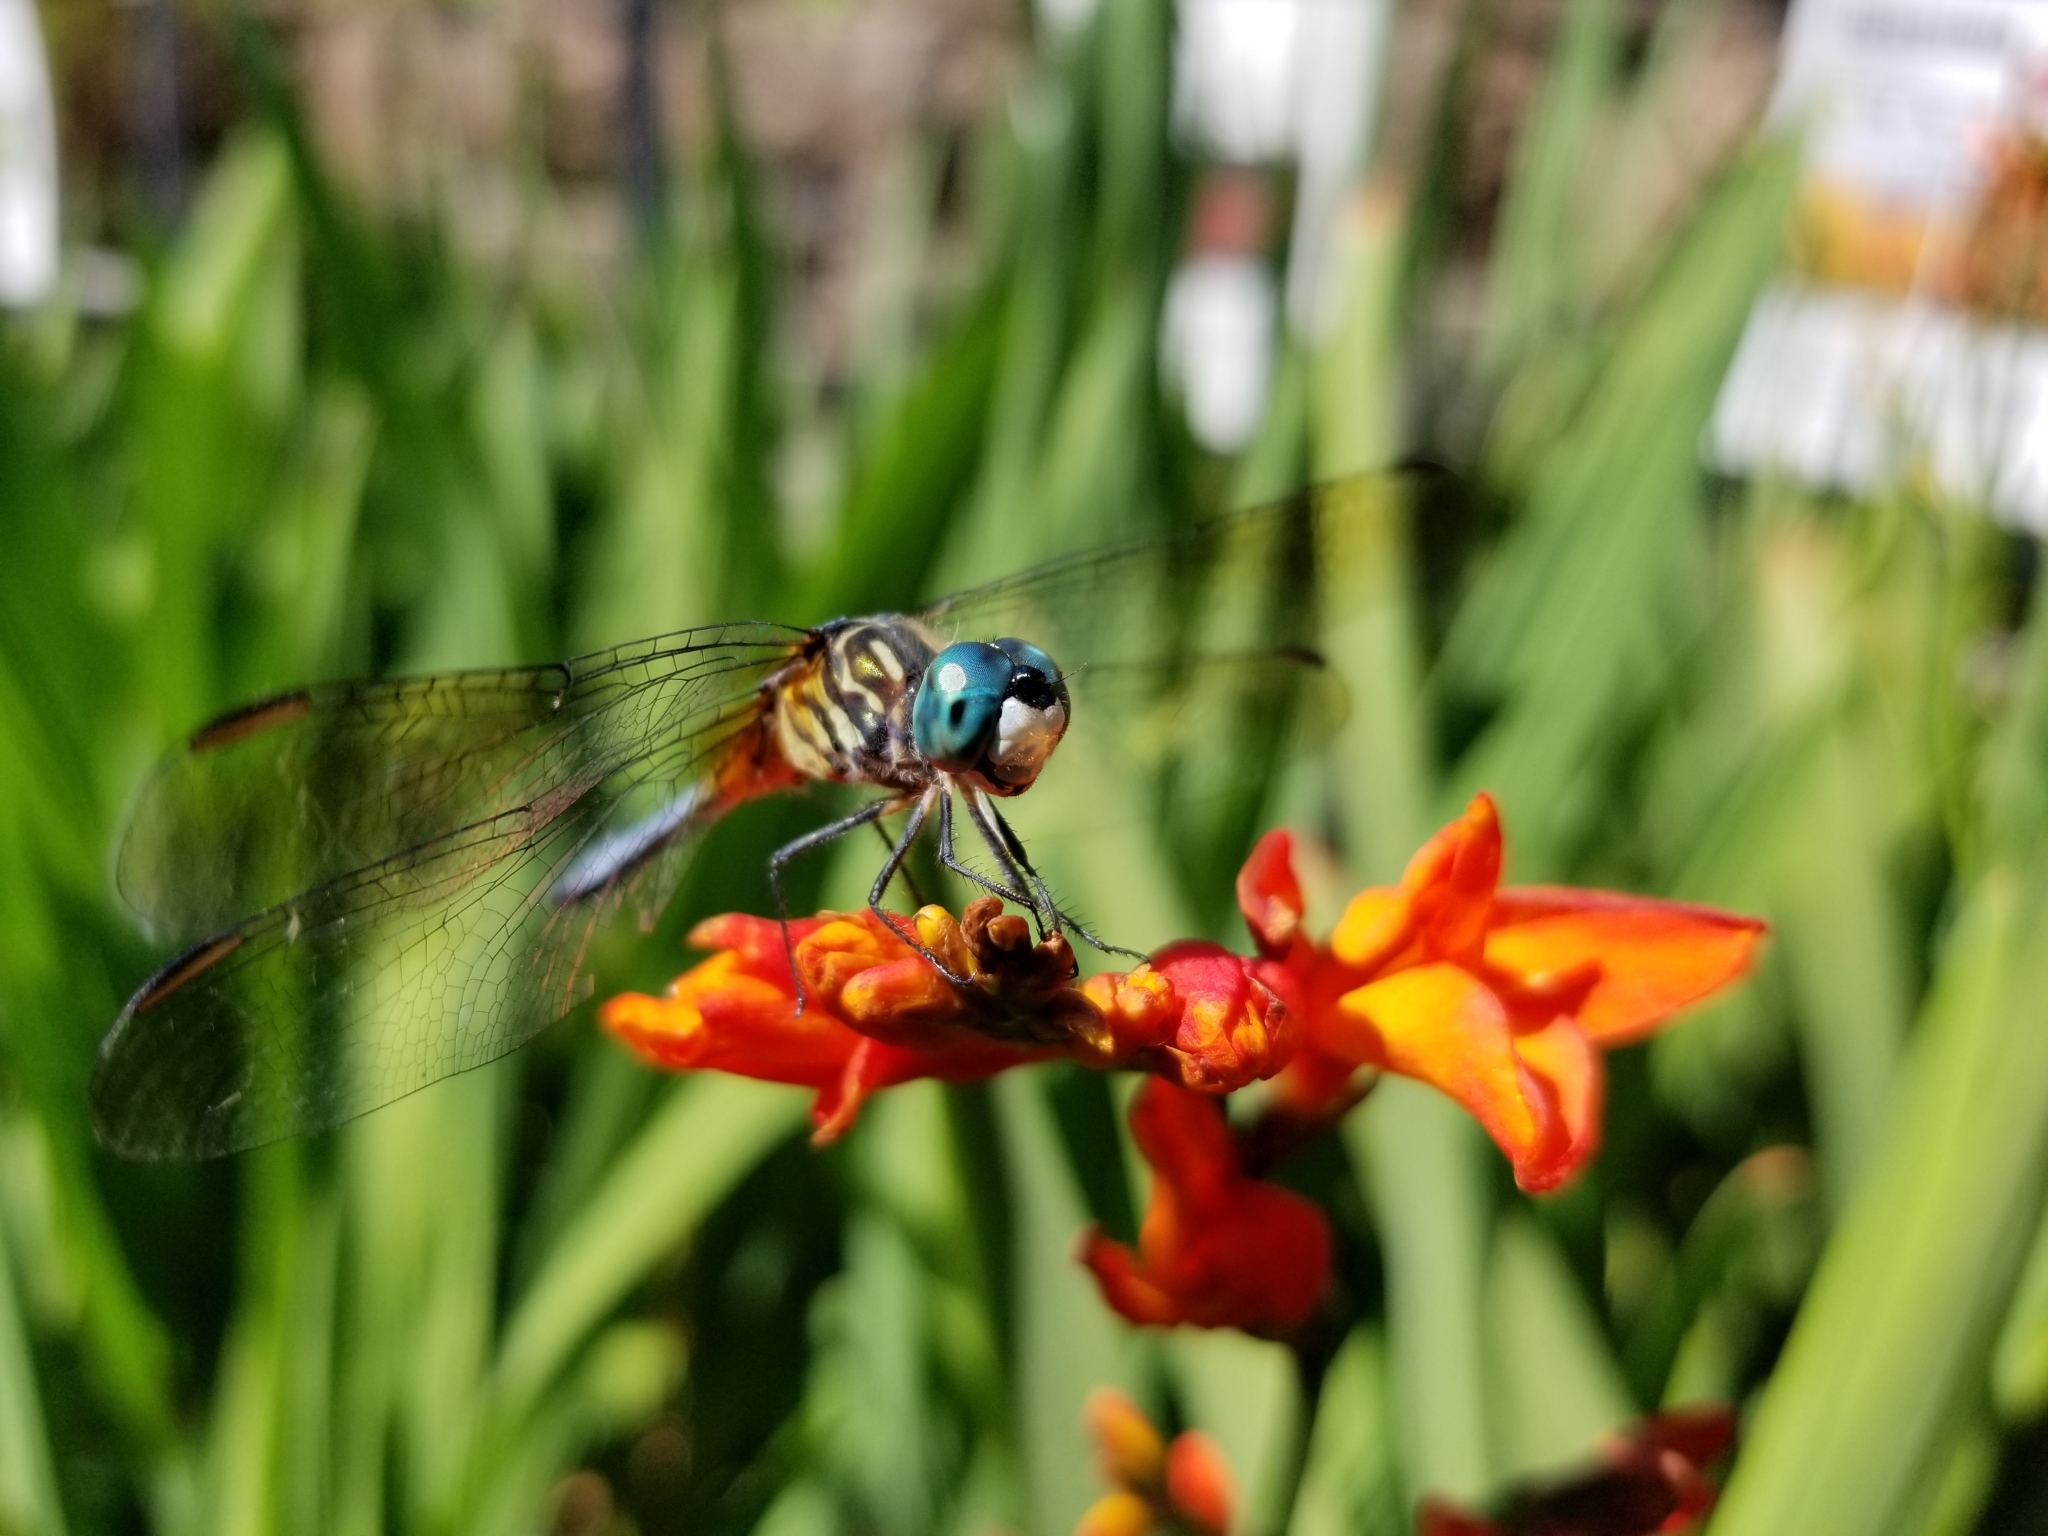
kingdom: Animalia
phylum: Arthropoda
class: Insecta
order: Odonata
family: Libellulidae
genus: Pachydiplax
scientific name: Pachydiplax longipennis
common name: Blue dasher
